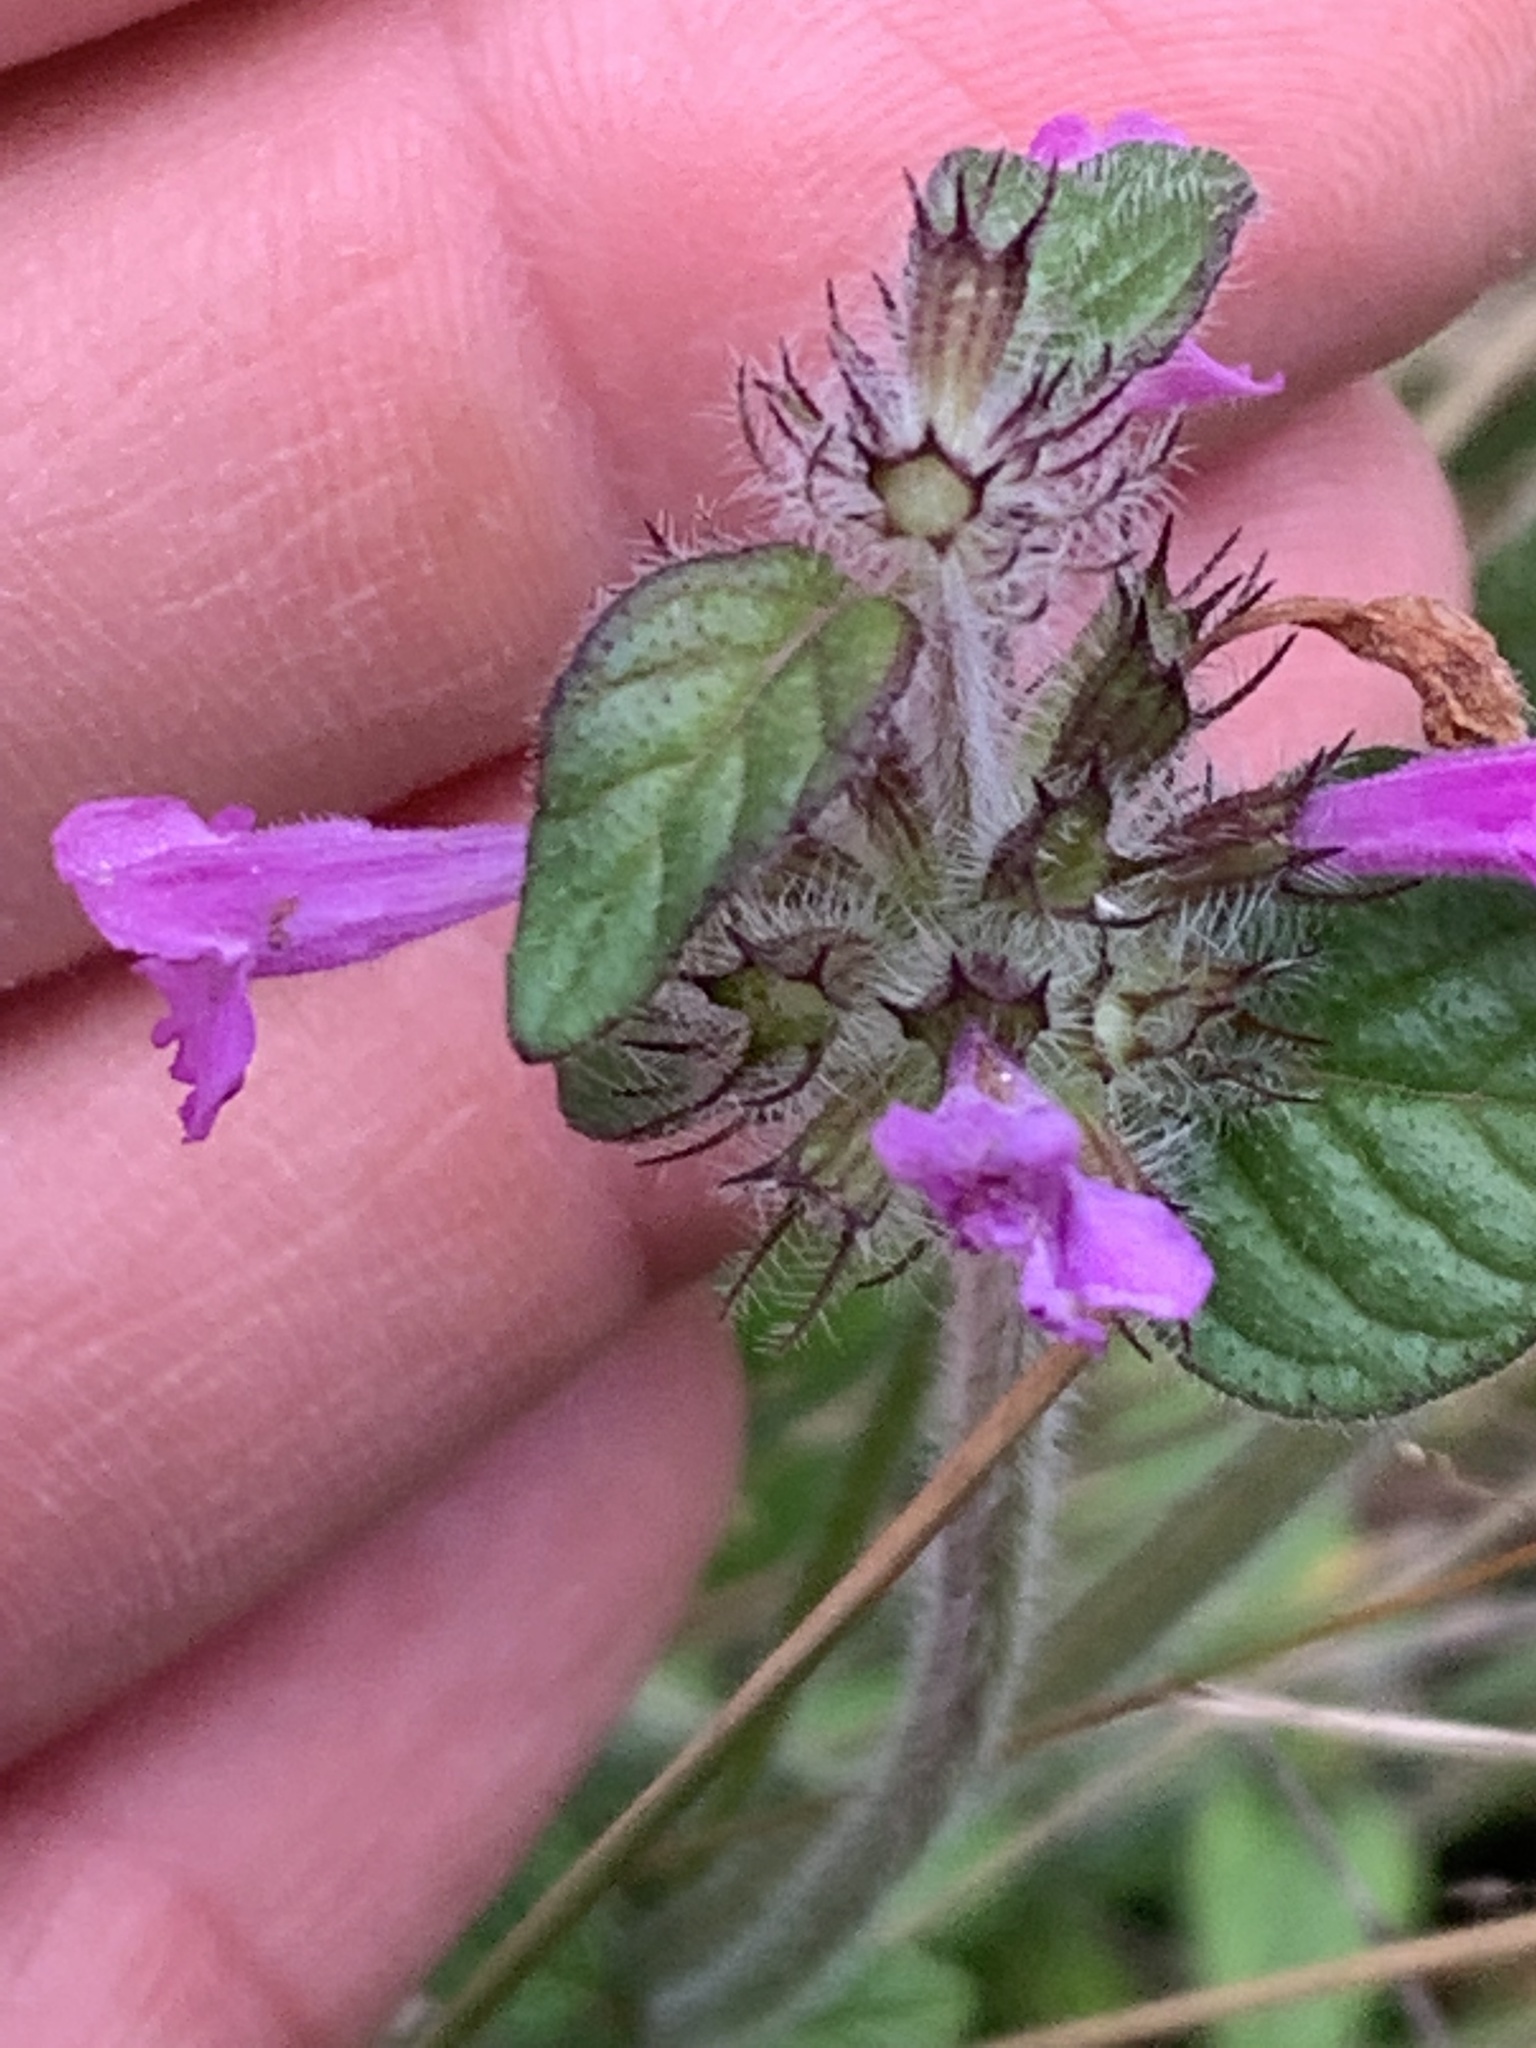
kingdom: Plantae
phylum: Tracheophyta
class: Magnoliopsida
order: Lamiales
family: Lamiaceae
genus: Clinopodium
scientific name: Clinopodium vulgare
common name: Wild basil
